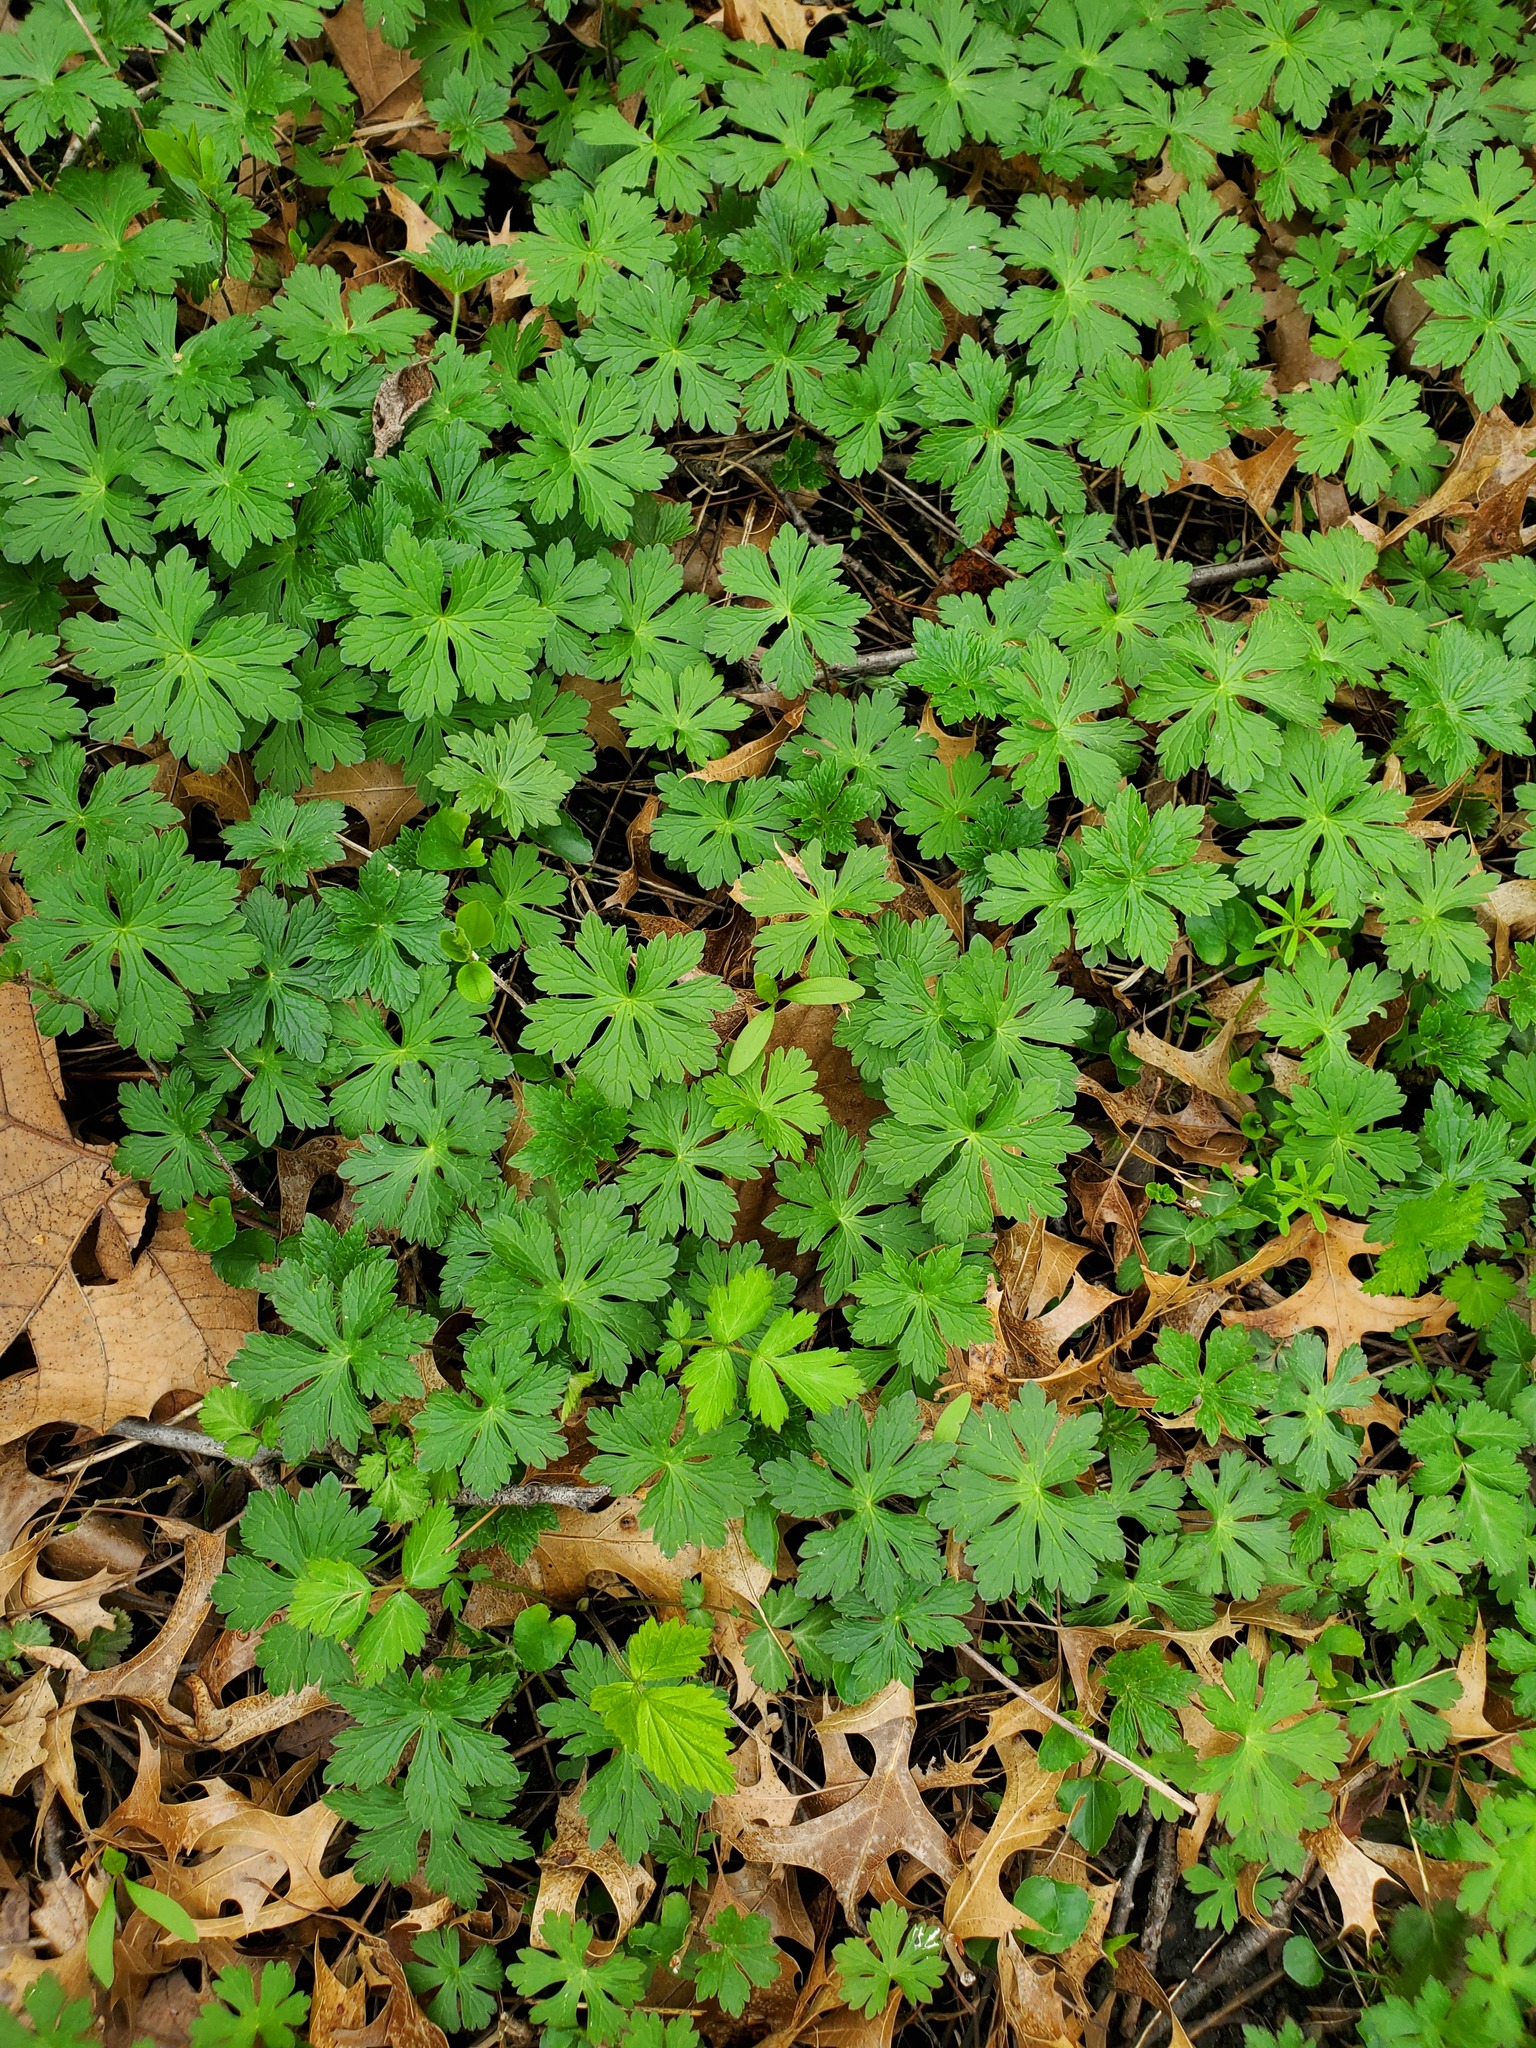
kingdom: Plantae
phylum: Tracheophyta
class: Magnoliopsida
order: Geraniales
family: Geraniaceae
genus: Geranium
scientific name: Geranium maculatum
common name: Spotted geranium
